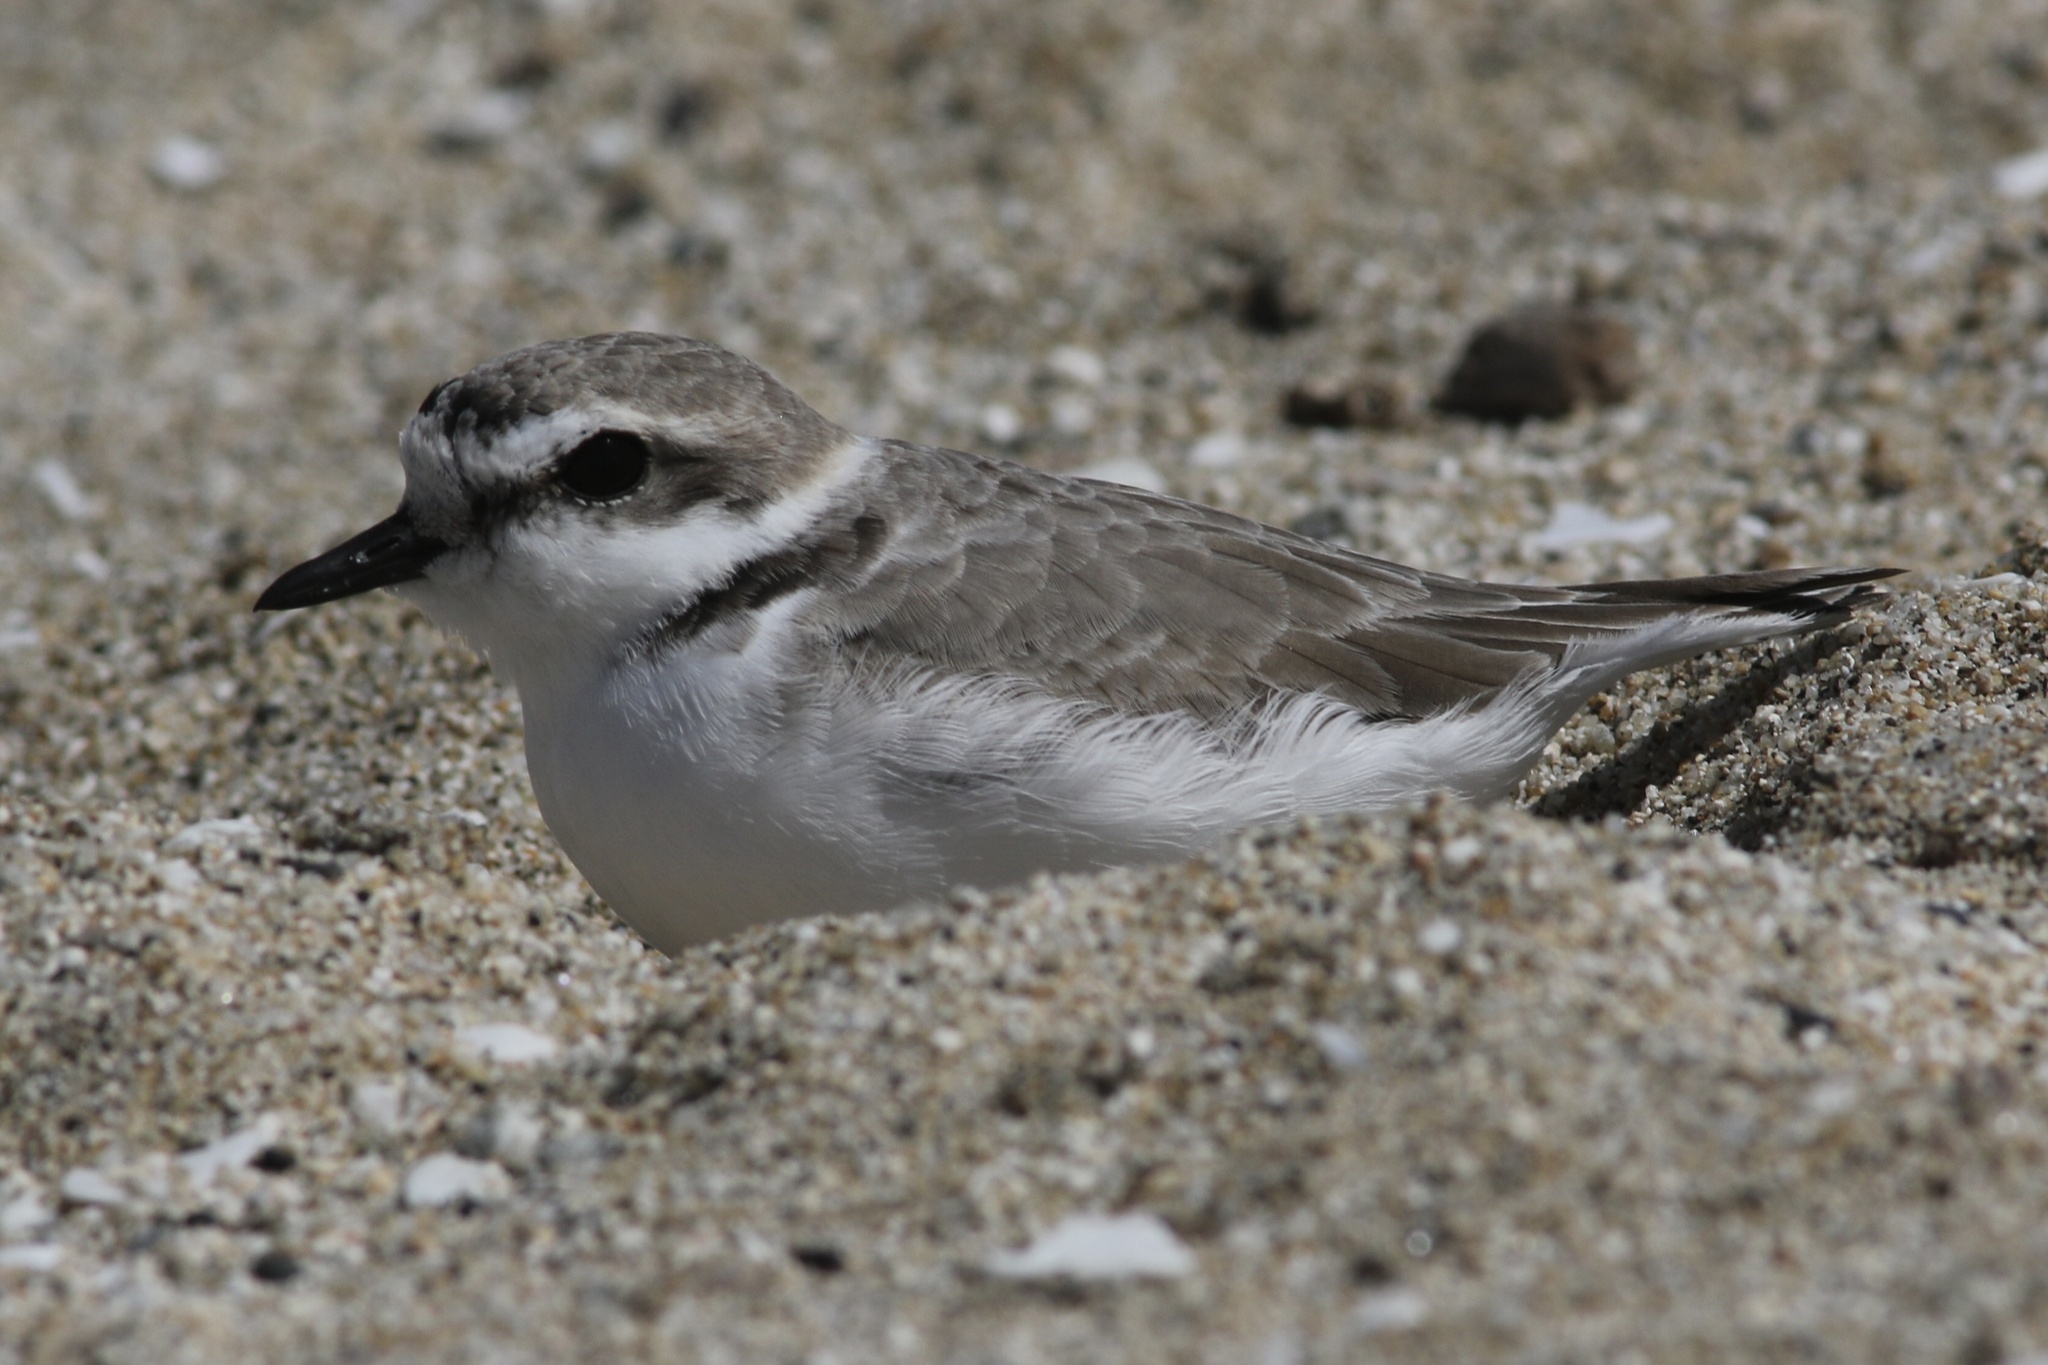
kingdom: Animalia
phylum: Chordata
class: Aves
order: Charadriiformes
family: Charadriidae
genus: Anarhynchus
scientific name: Anarhynchus
